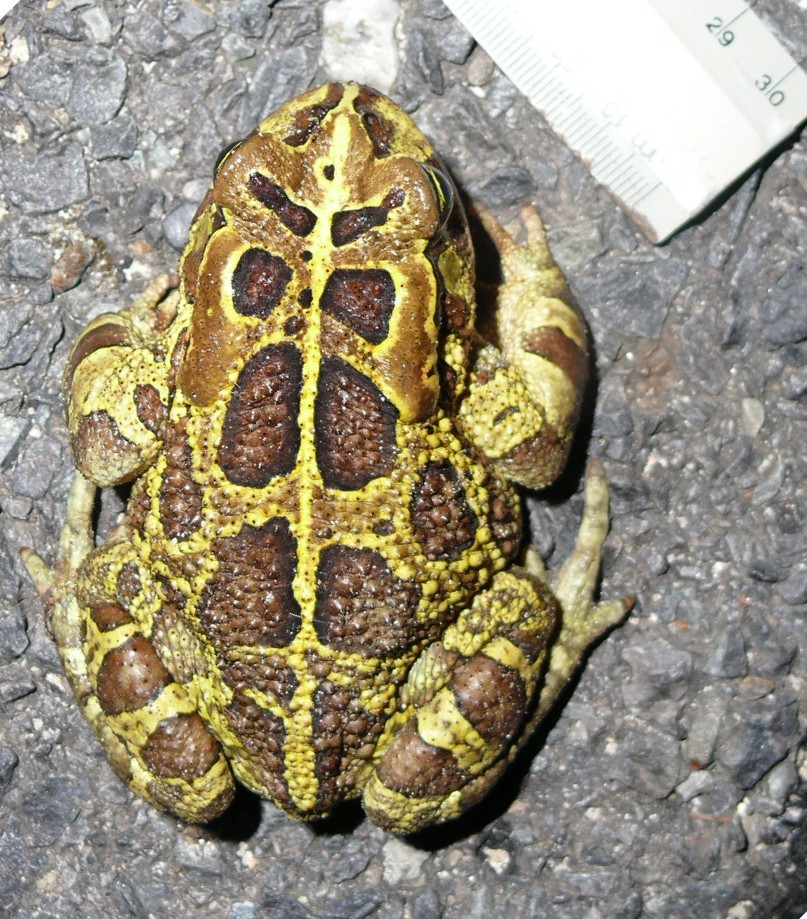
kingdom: Animalia
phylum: Chordata
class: Amphibia
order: Anura
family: Bufonidae
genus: Sclerophrys
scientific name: Sclerophrys pantherina
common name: Panther toad
